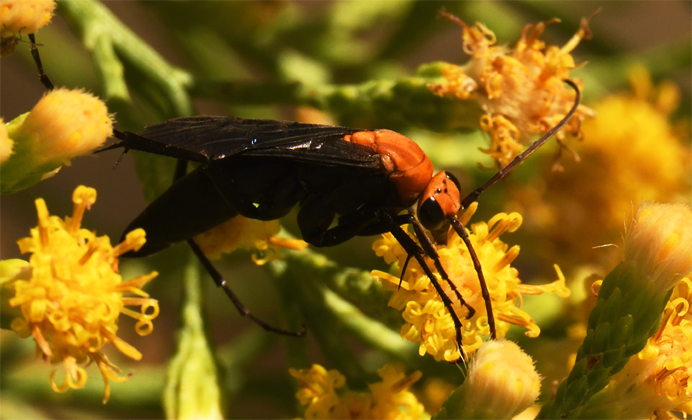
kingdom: Animalia
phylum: Arthropoda
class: Insecta
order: Hymenoptera
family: Pompilidae
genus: Notocyphus
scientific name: Notocyphus dorsalis
